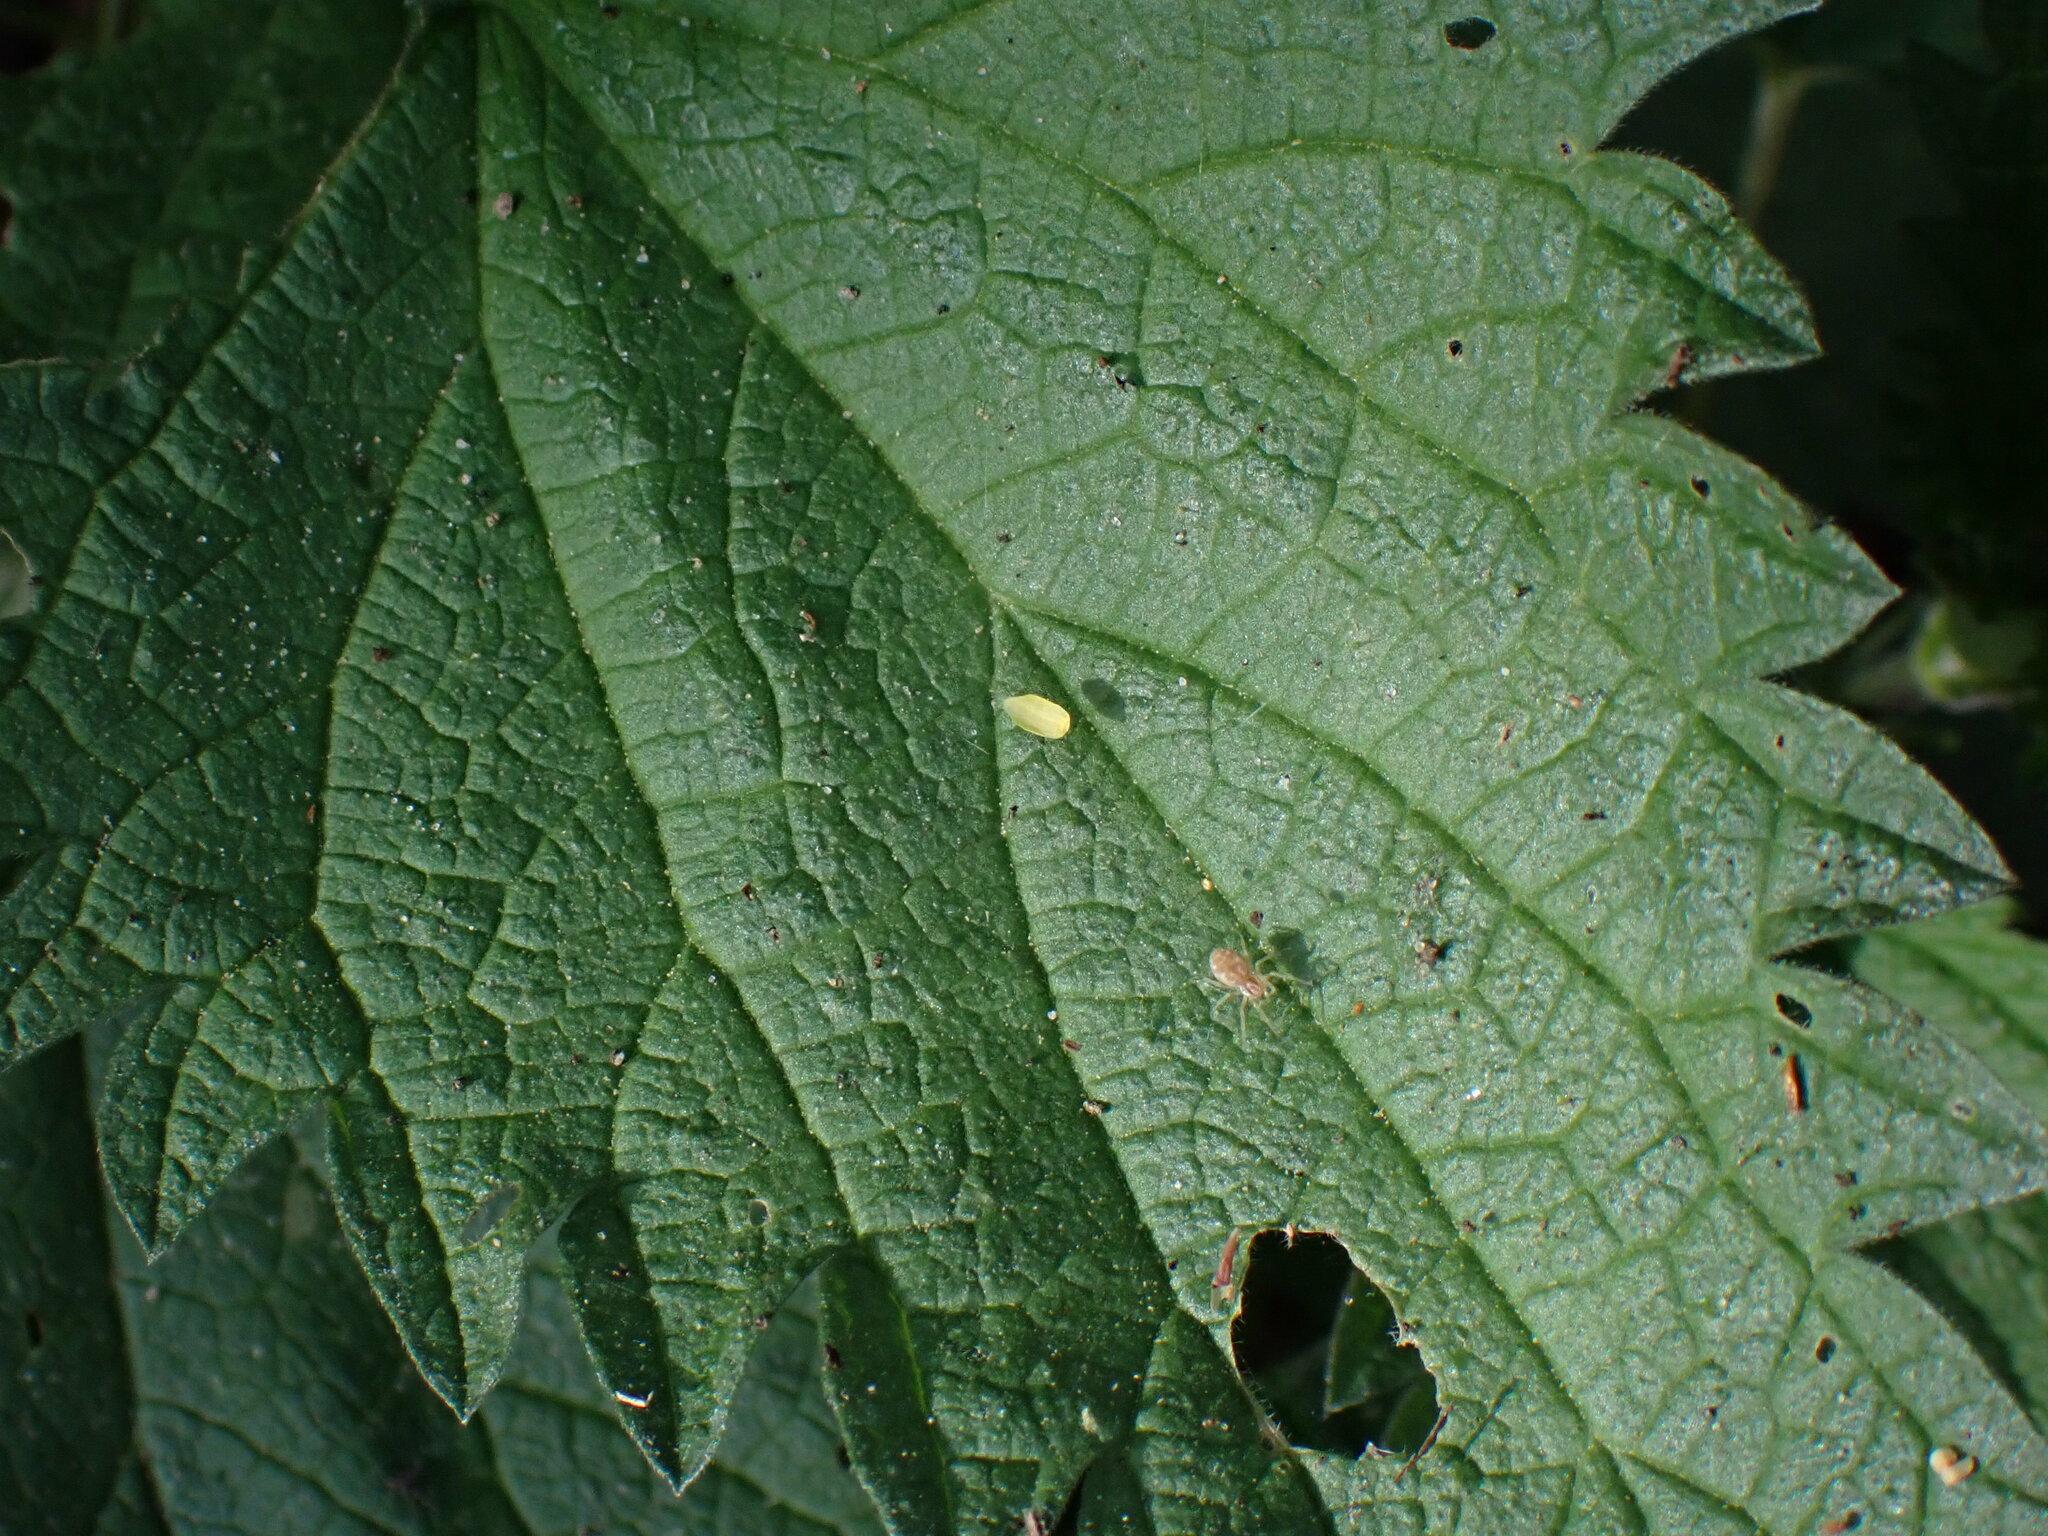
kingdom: Animalia
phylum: Arthropoda
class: Arachnida
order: Araneae
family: Dictynidae
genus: Nigma
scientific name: Nigma flavescens
